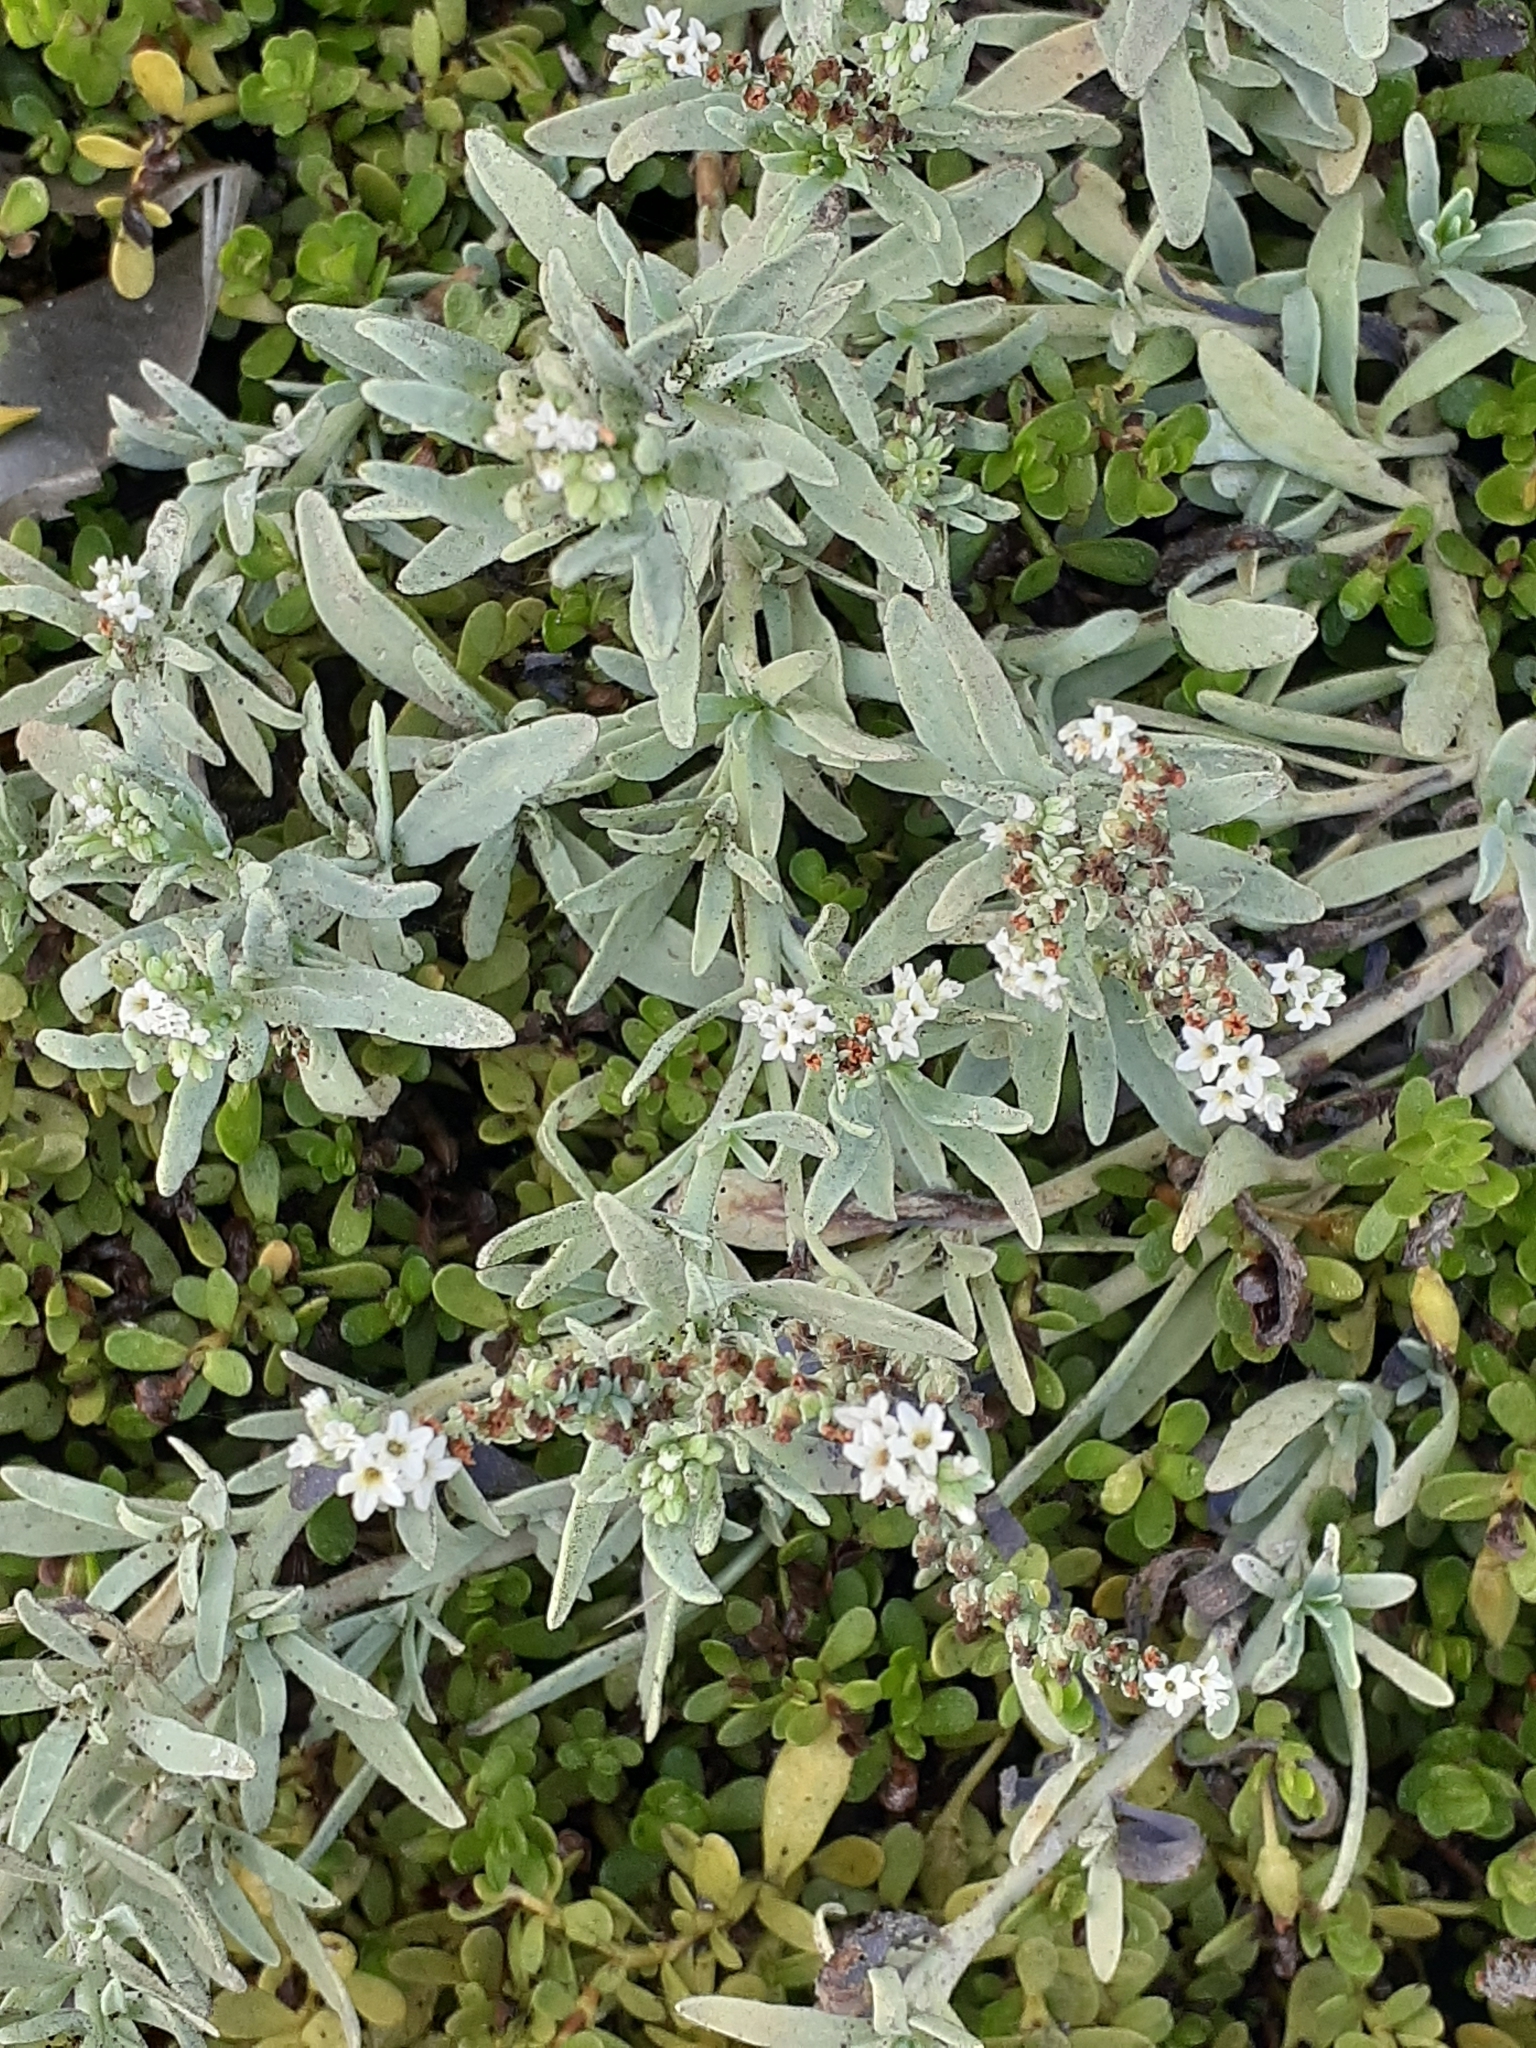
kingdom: Plantae
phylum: Tracheophyta
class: Magnoliopsida
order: Boraginales
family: Heliotropiaceae
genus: Heliotropium
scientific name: Heliotropium curassavicum
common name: Seaside heliotrope
